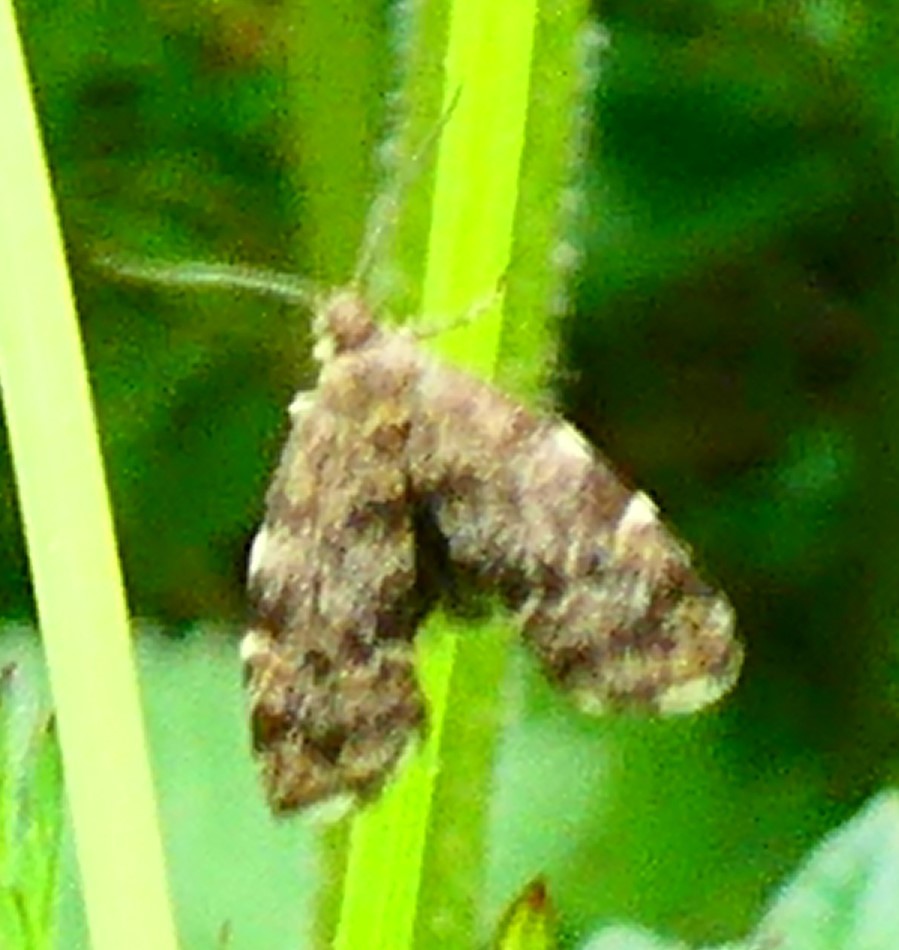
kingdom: Animalia
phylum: Arthropoda
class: Insecta
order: Lepidoptera
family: Choreutidae
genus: Anthophila
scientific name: Anthophila fabriciana
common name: Nettle-tap
